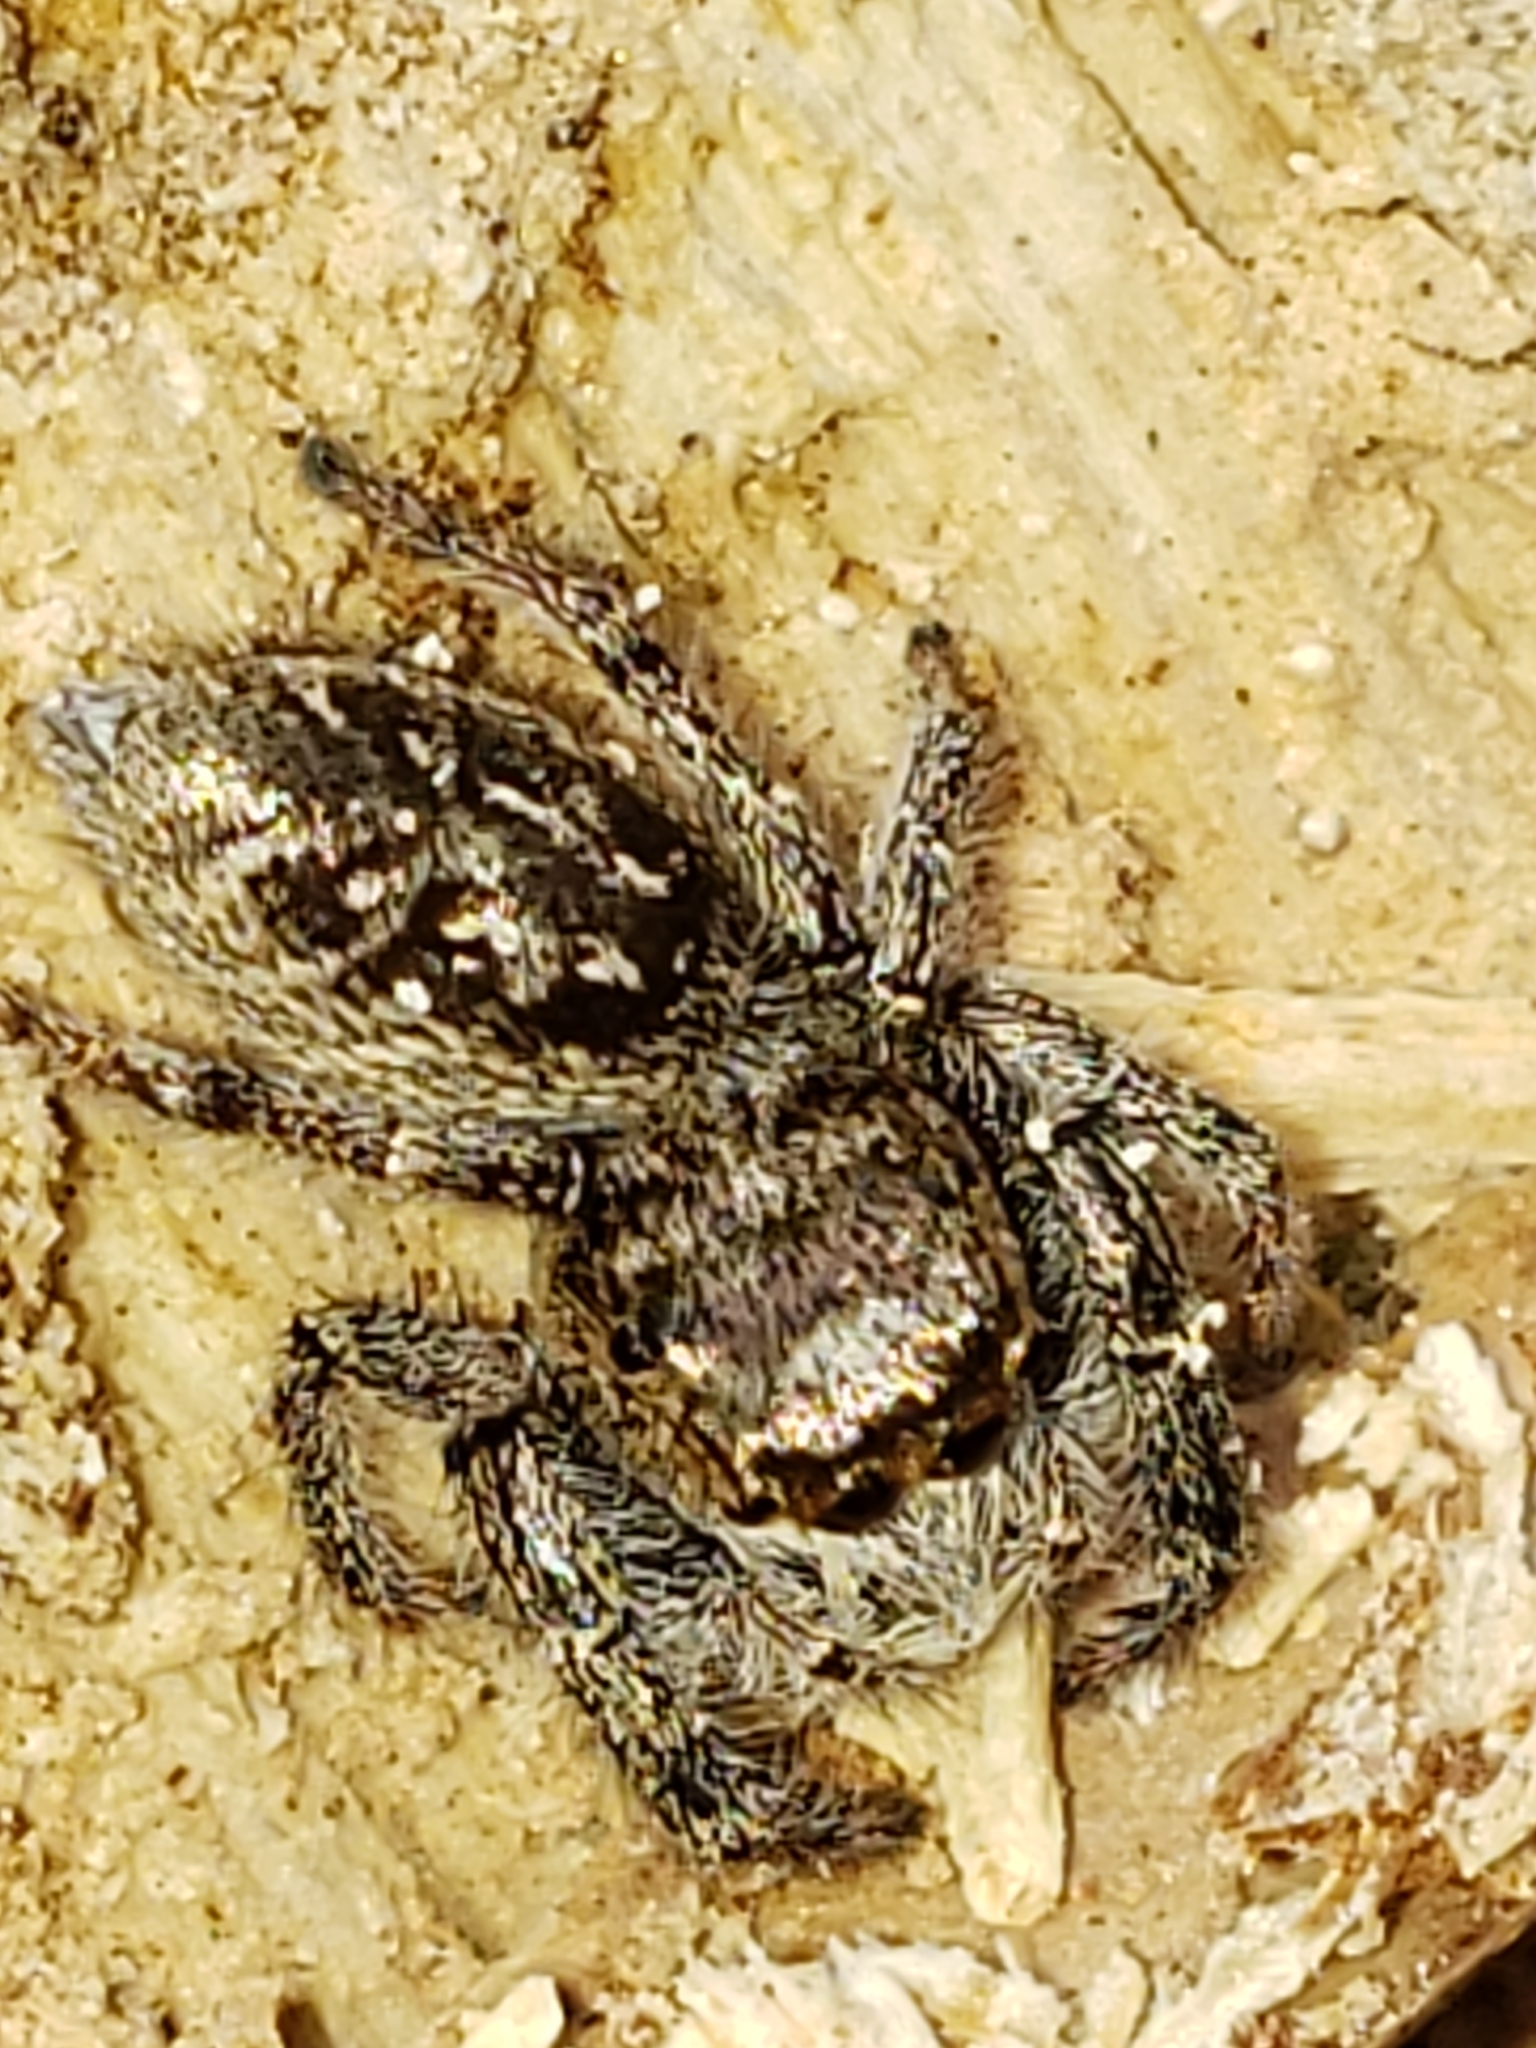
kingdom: Animalia
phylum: Arthropoda
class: Arachnida
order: Araneae
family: Salticidae
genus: Eris
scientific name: Eris militaris
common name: Bronze jumper
